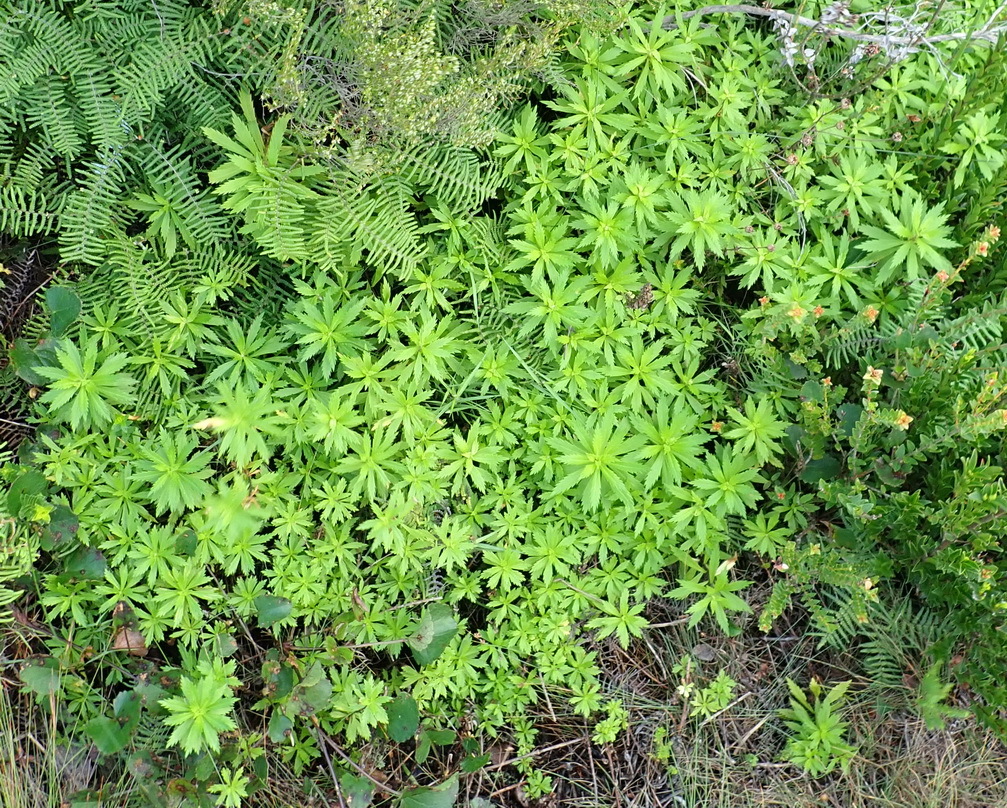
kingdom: Plantae
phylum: Tracheophyta
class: Magnoliopsida
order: Asterales
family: Asteraceae
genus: Osmitopsis
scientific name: Osmitopsis osmitoides
